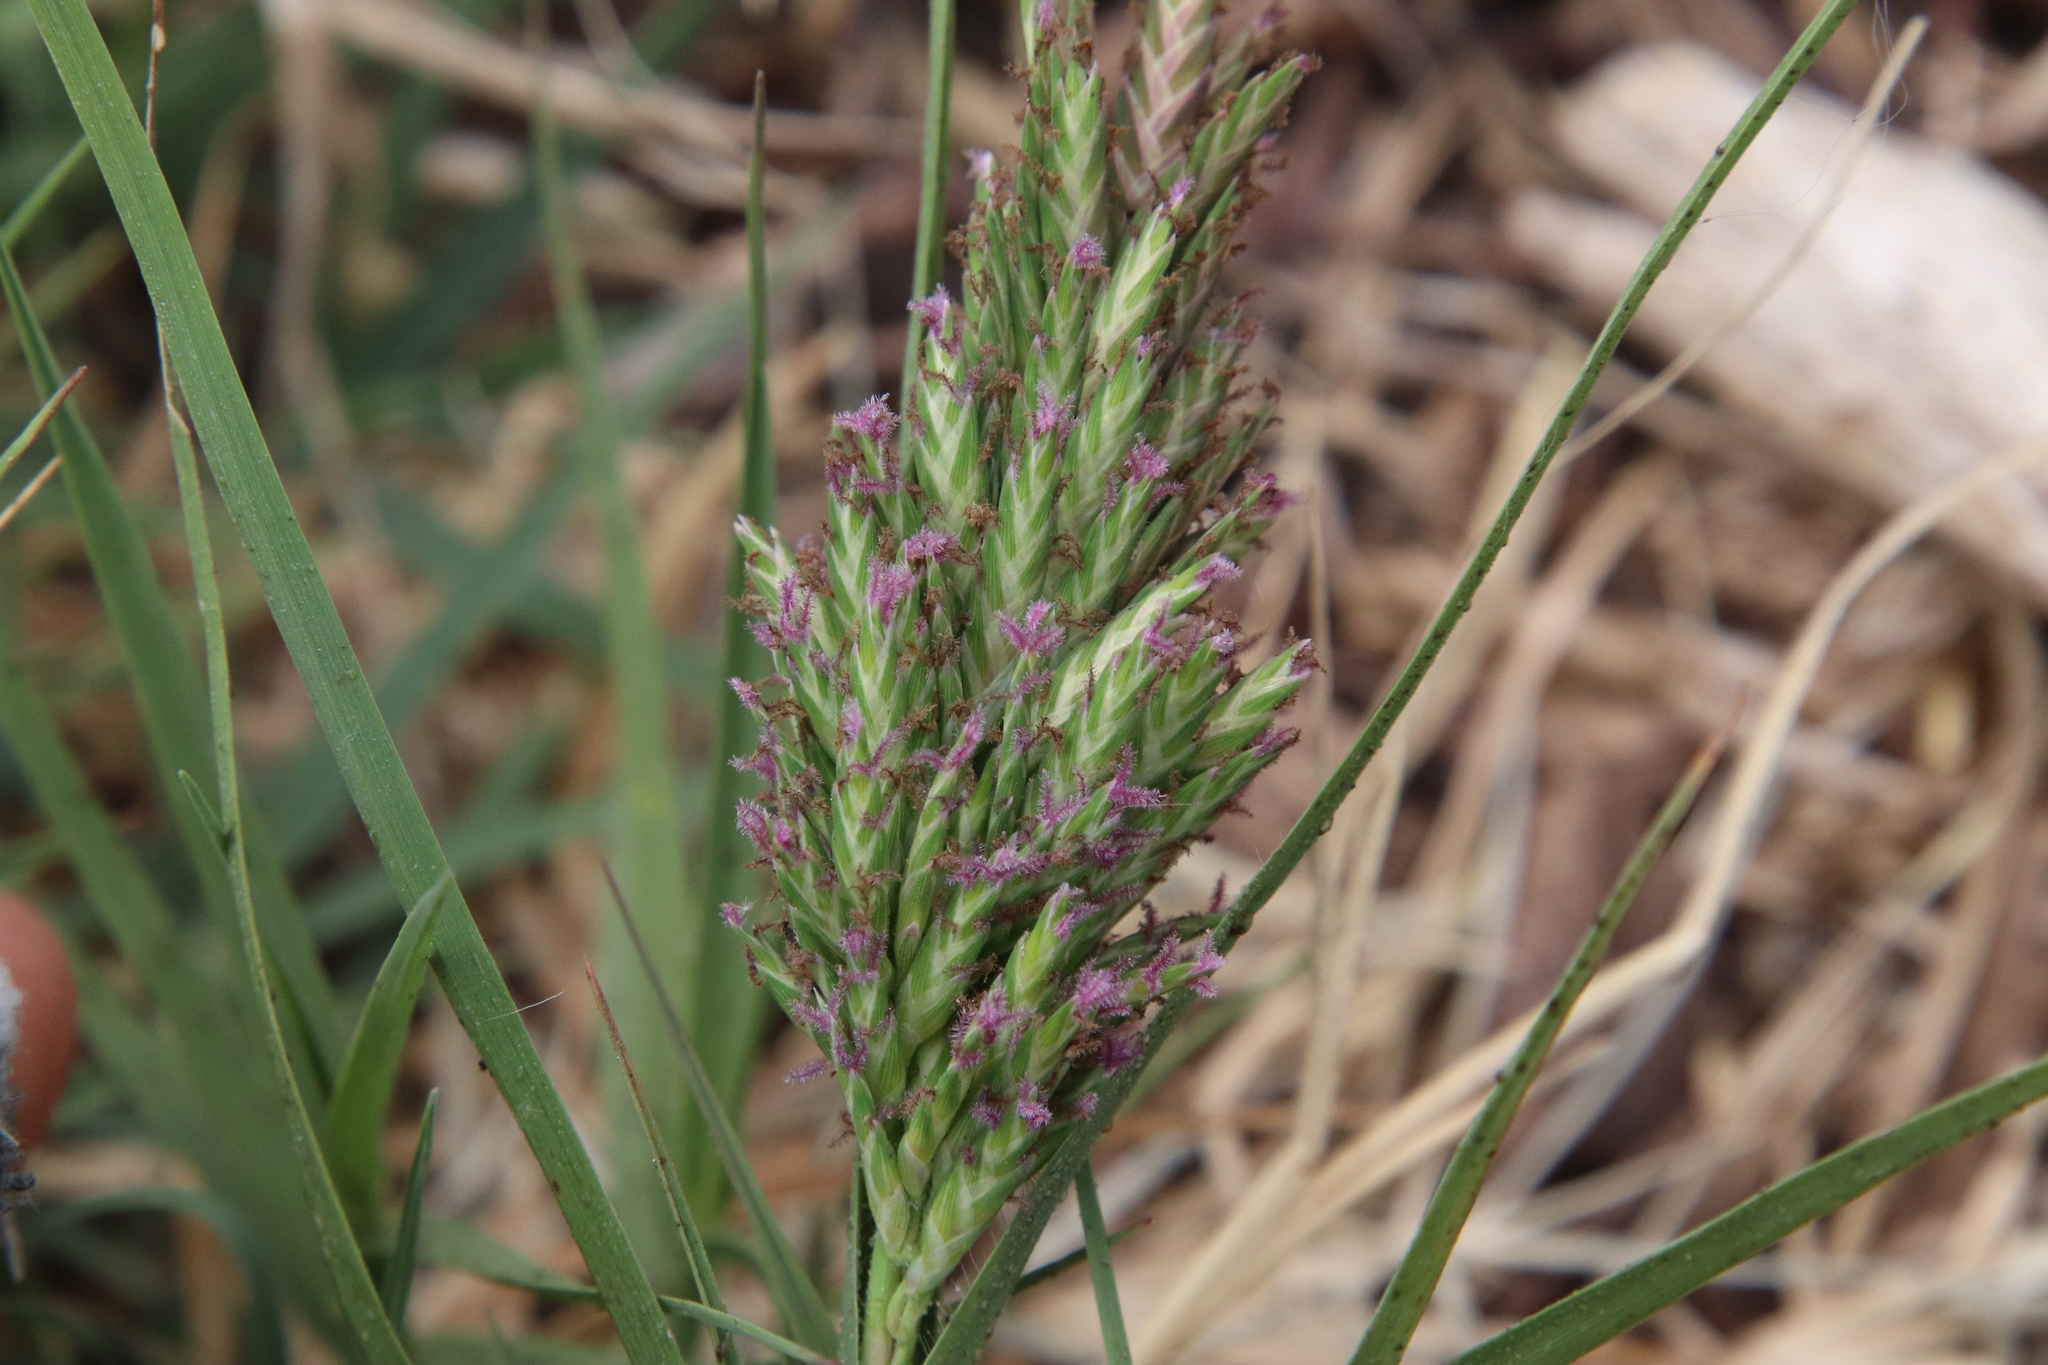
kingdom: Plantae
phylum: Tracheophyta
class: Liliopsida
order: Poales
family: Poaceae
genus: Distichlis
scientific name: Distichlis spicata
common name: Saltgrass
